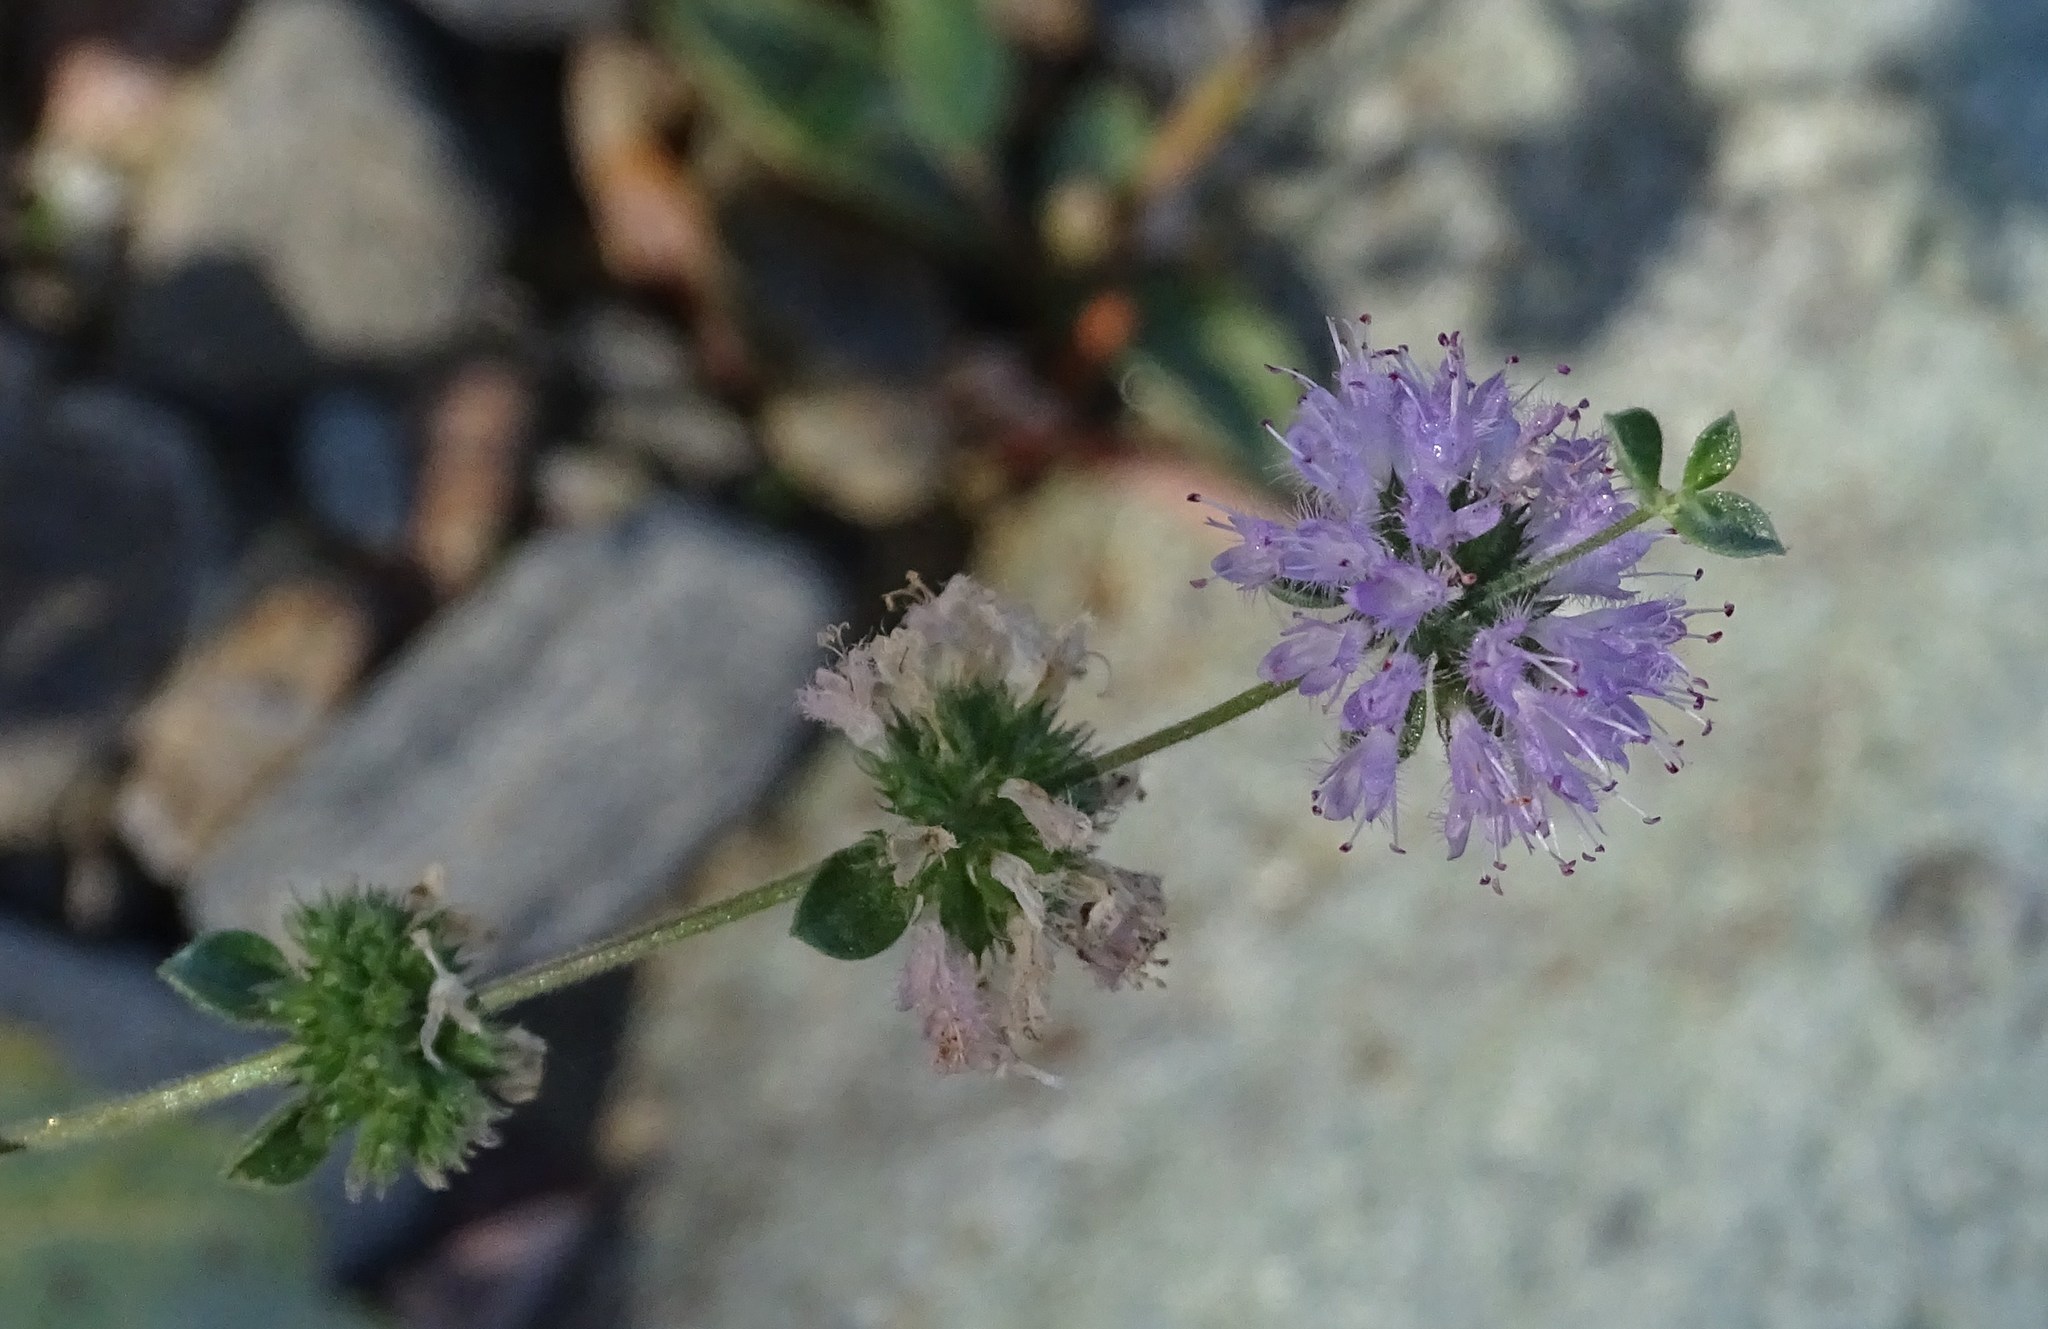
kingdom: Plantae
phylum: Tracheophyta
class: Magnoliopsida
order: Lamiales
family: Lamiaceae
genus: Mentha
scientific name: Mentha pulegium
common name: Pennyroyal
